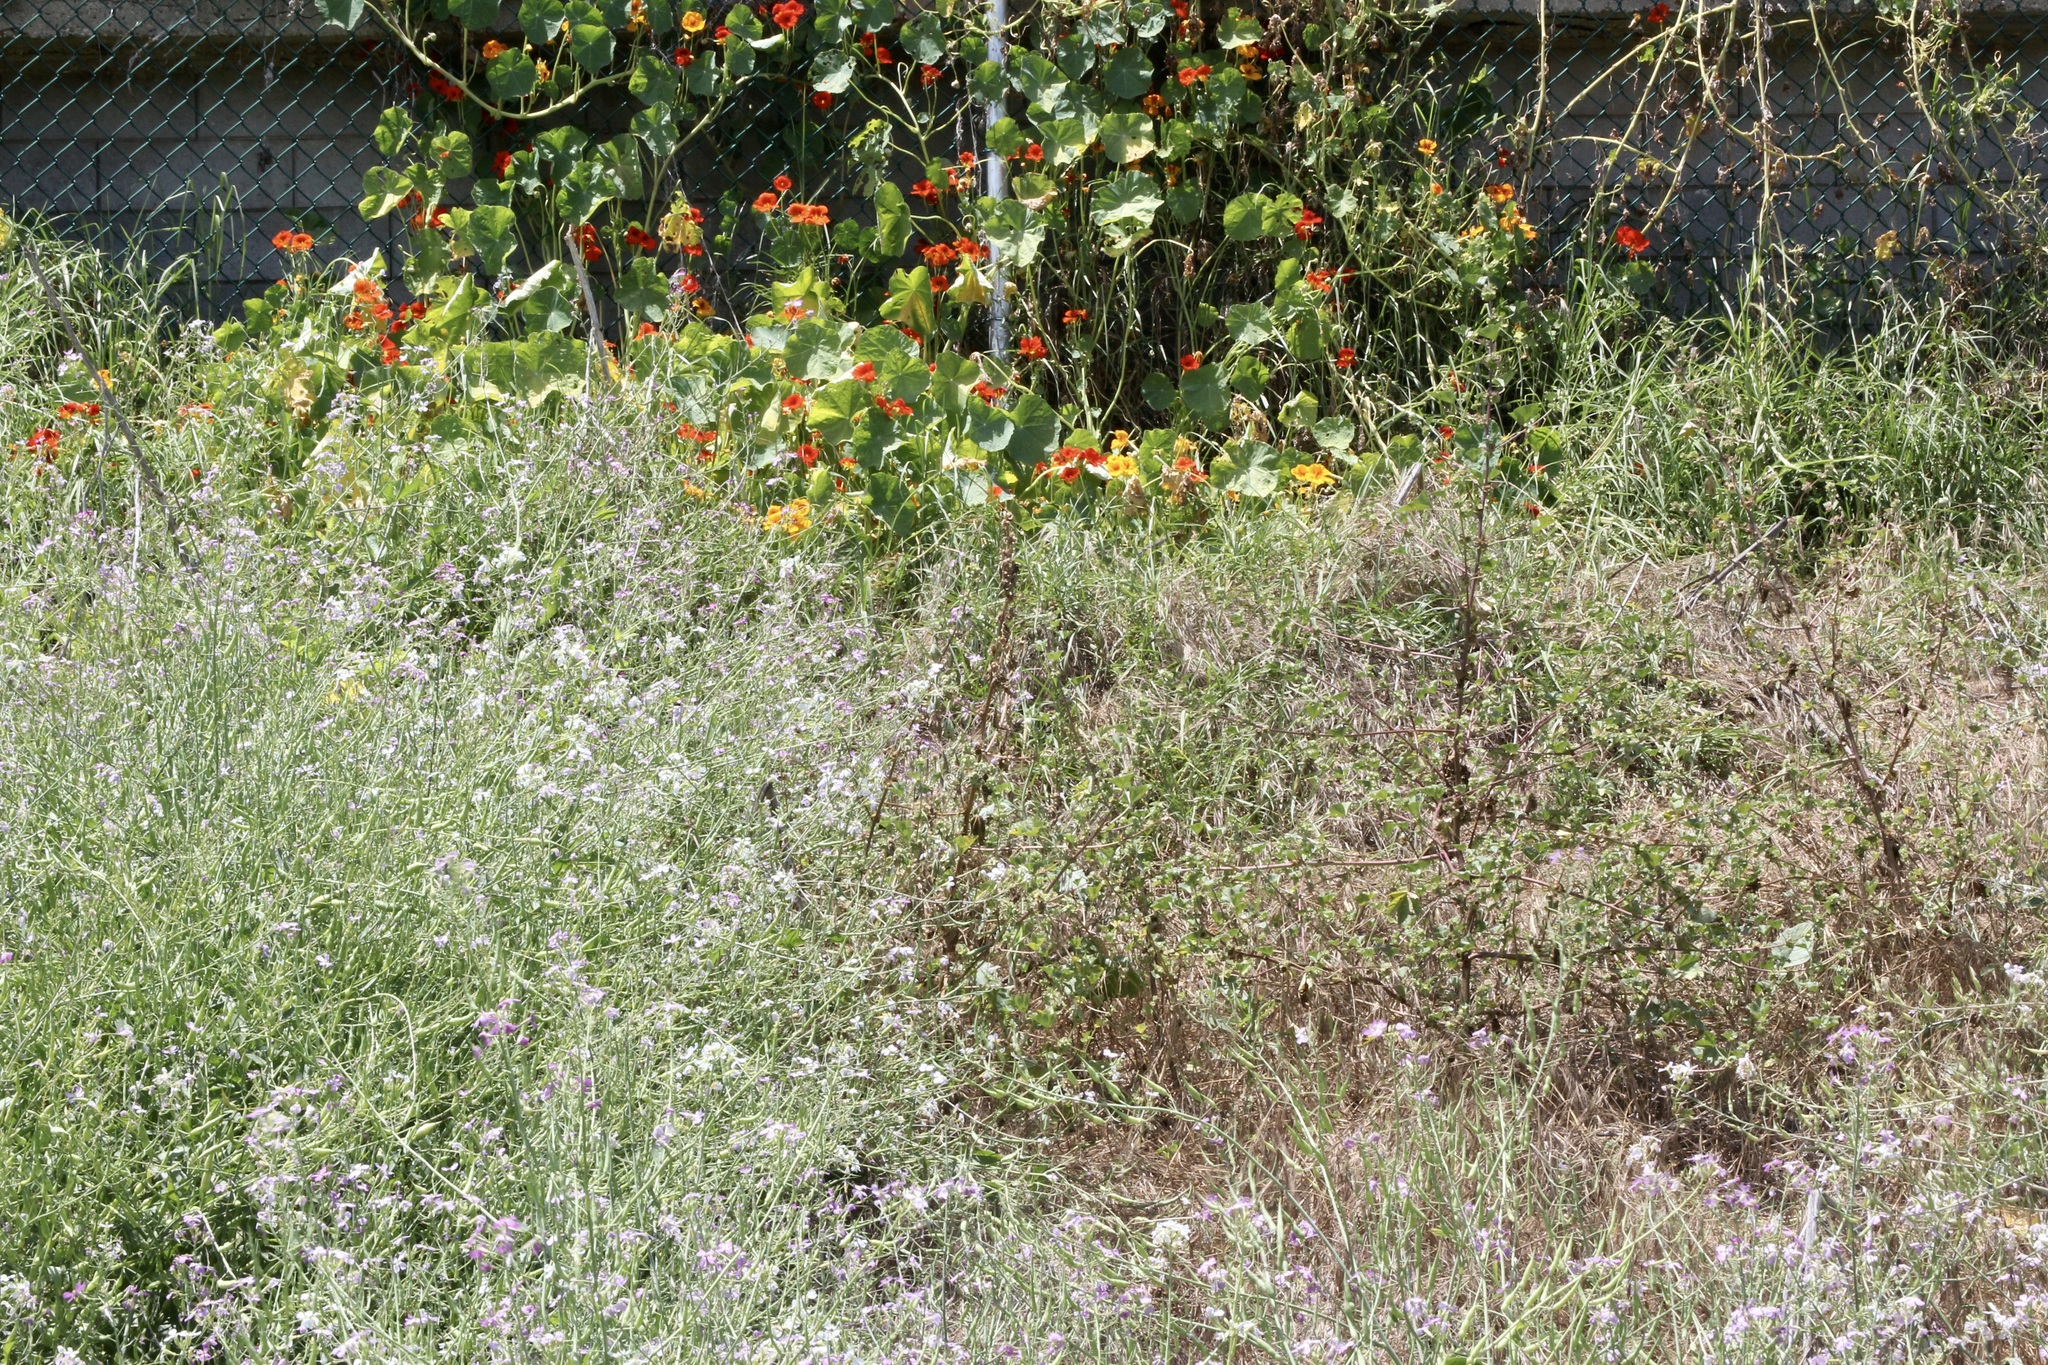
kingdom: Plantae
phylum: Tracheophyta
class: Magnoliopsida
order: Brassicales
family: Tropaeolaceae
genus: Tropaeolum
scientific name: Tropaeolum majus
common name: Nasturtium
